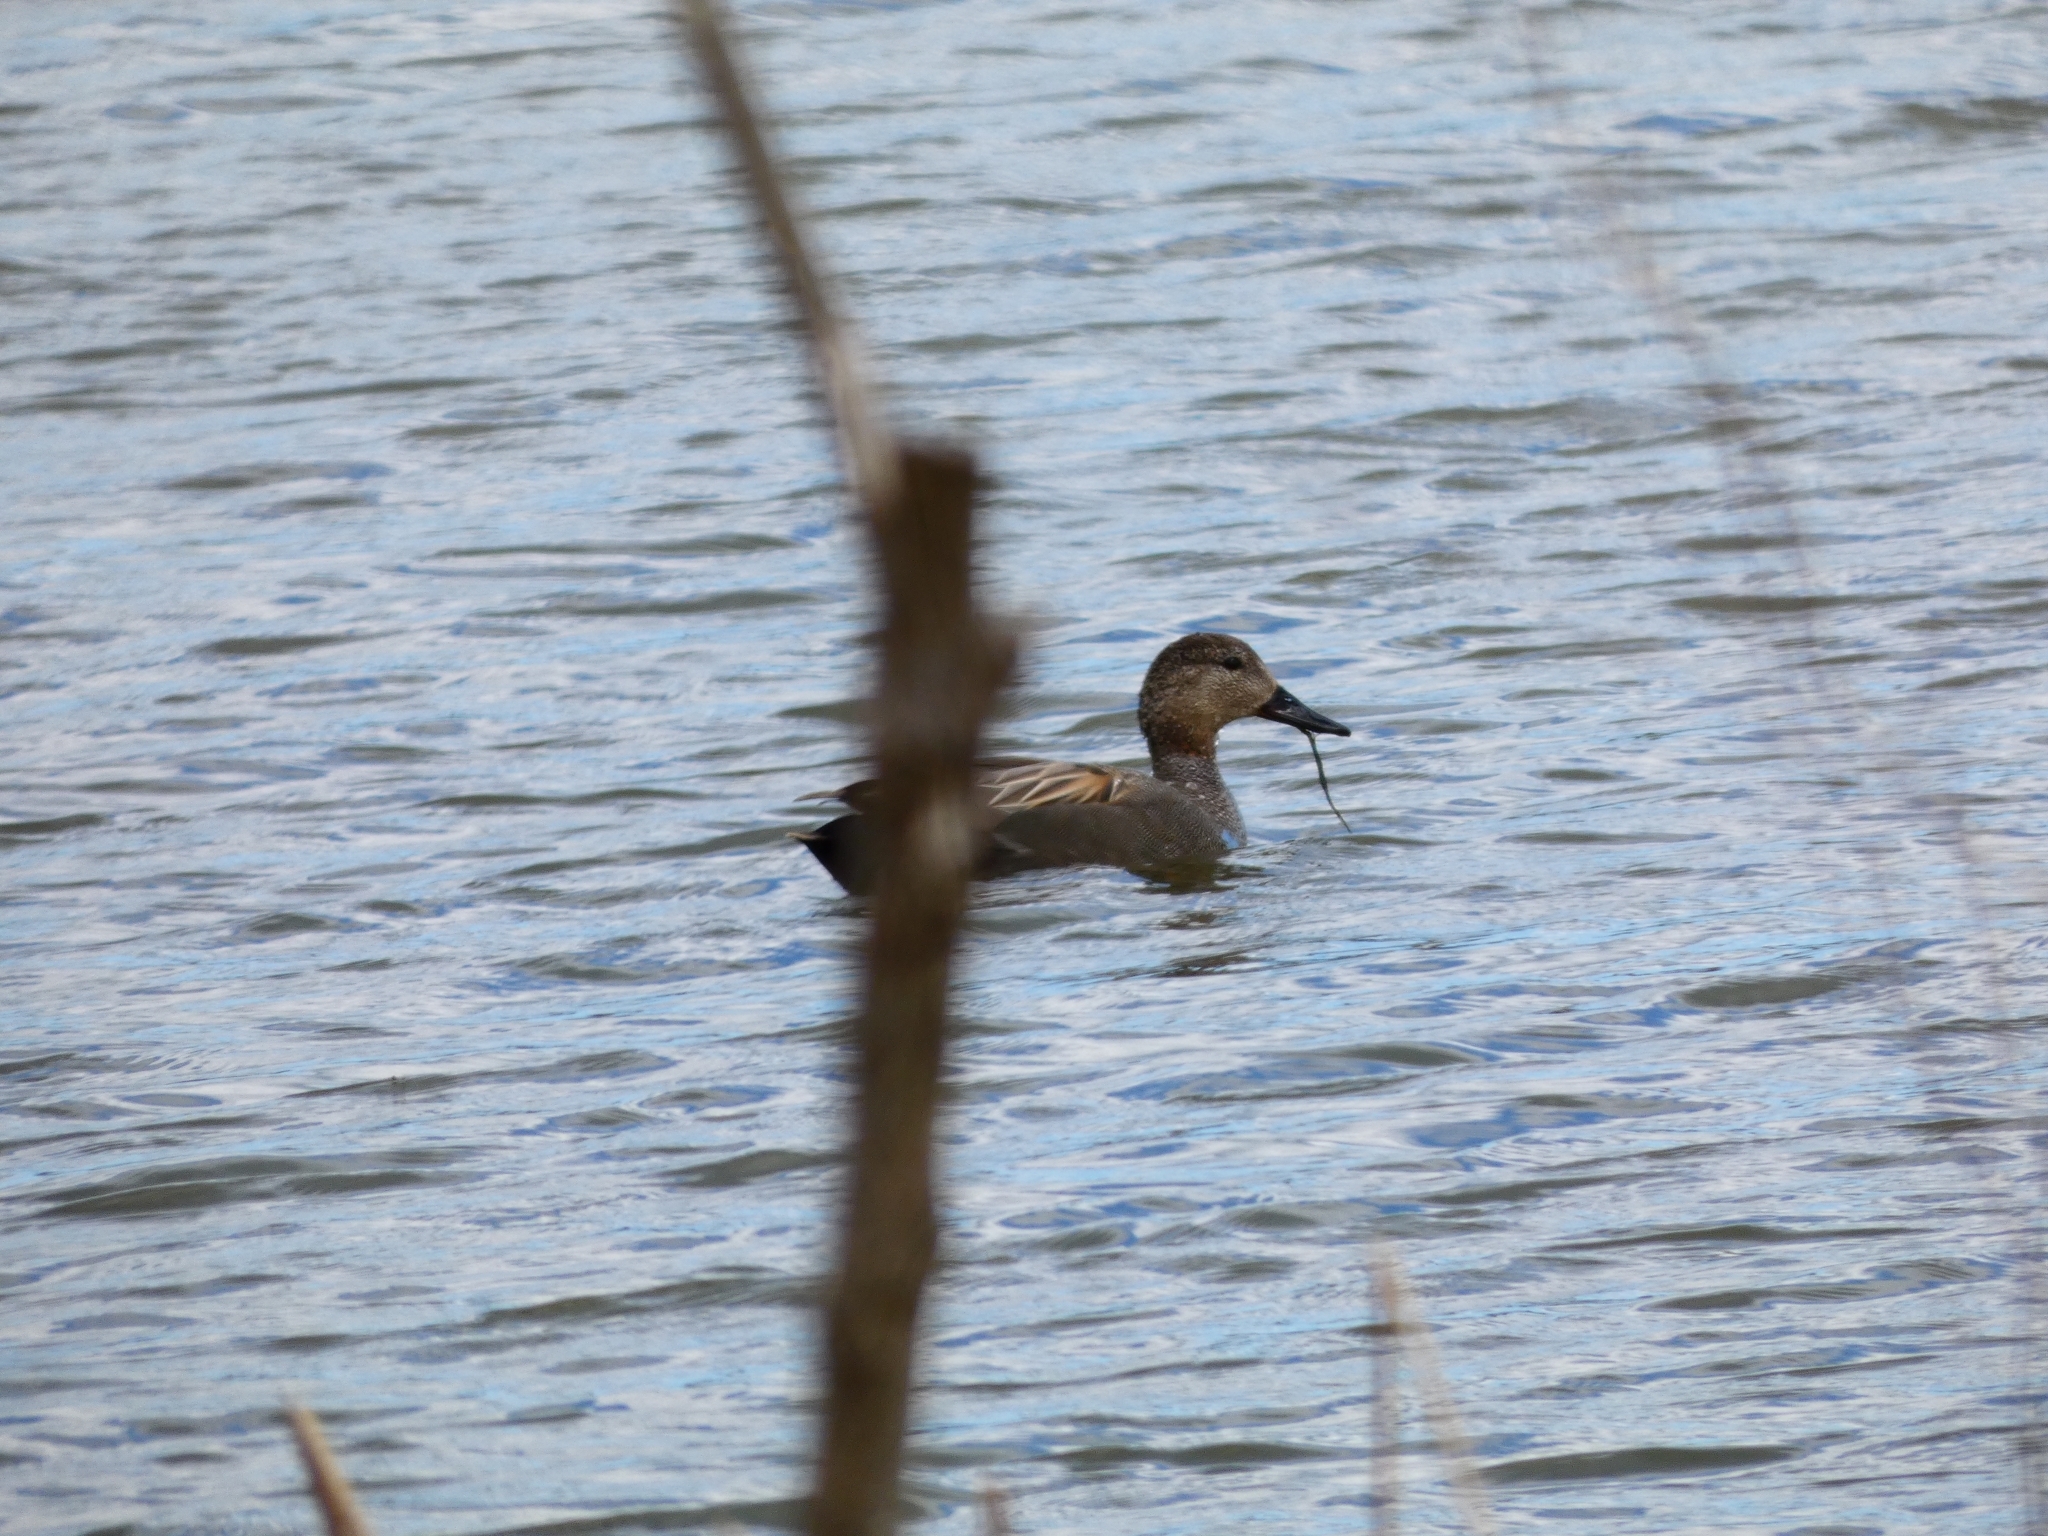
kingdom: Animalia
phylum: Chordata
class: Aves
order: Anseriformes
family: Anatidae
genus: Mareca
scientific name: Mareca strepera
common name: Gadwall
